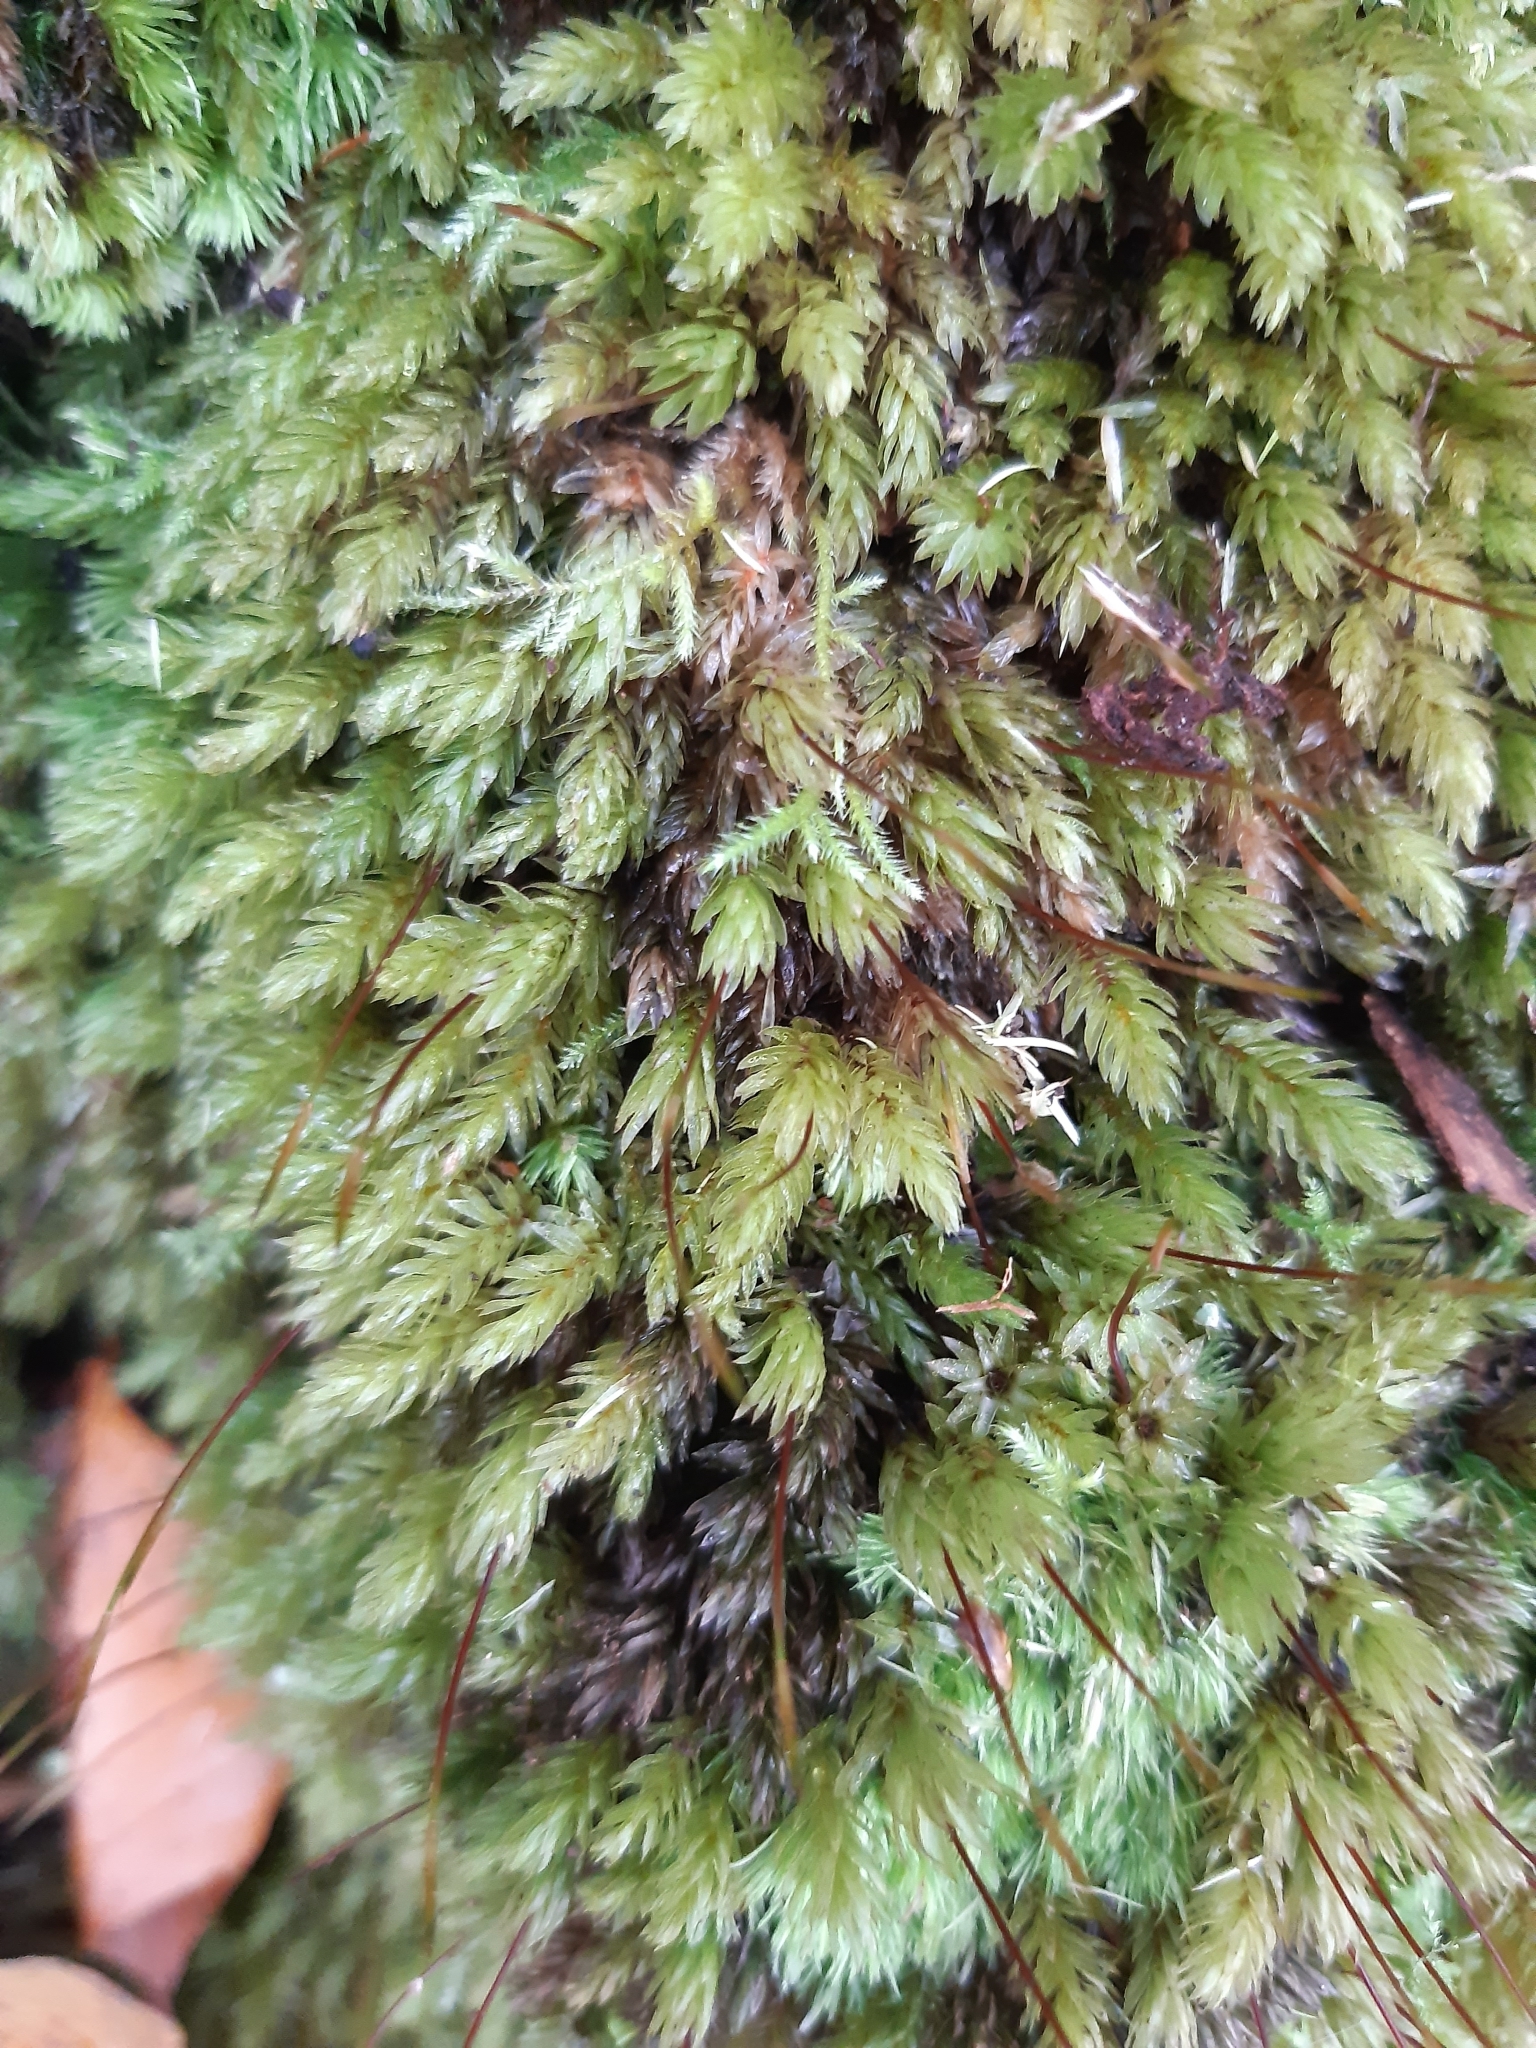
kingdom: Plantae
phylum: Bryophyta
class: Bryopsida
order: Bryales
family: Mniaceae
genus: Mnium
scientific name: Mnium hornum
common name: Swan's-neck leafy moss
